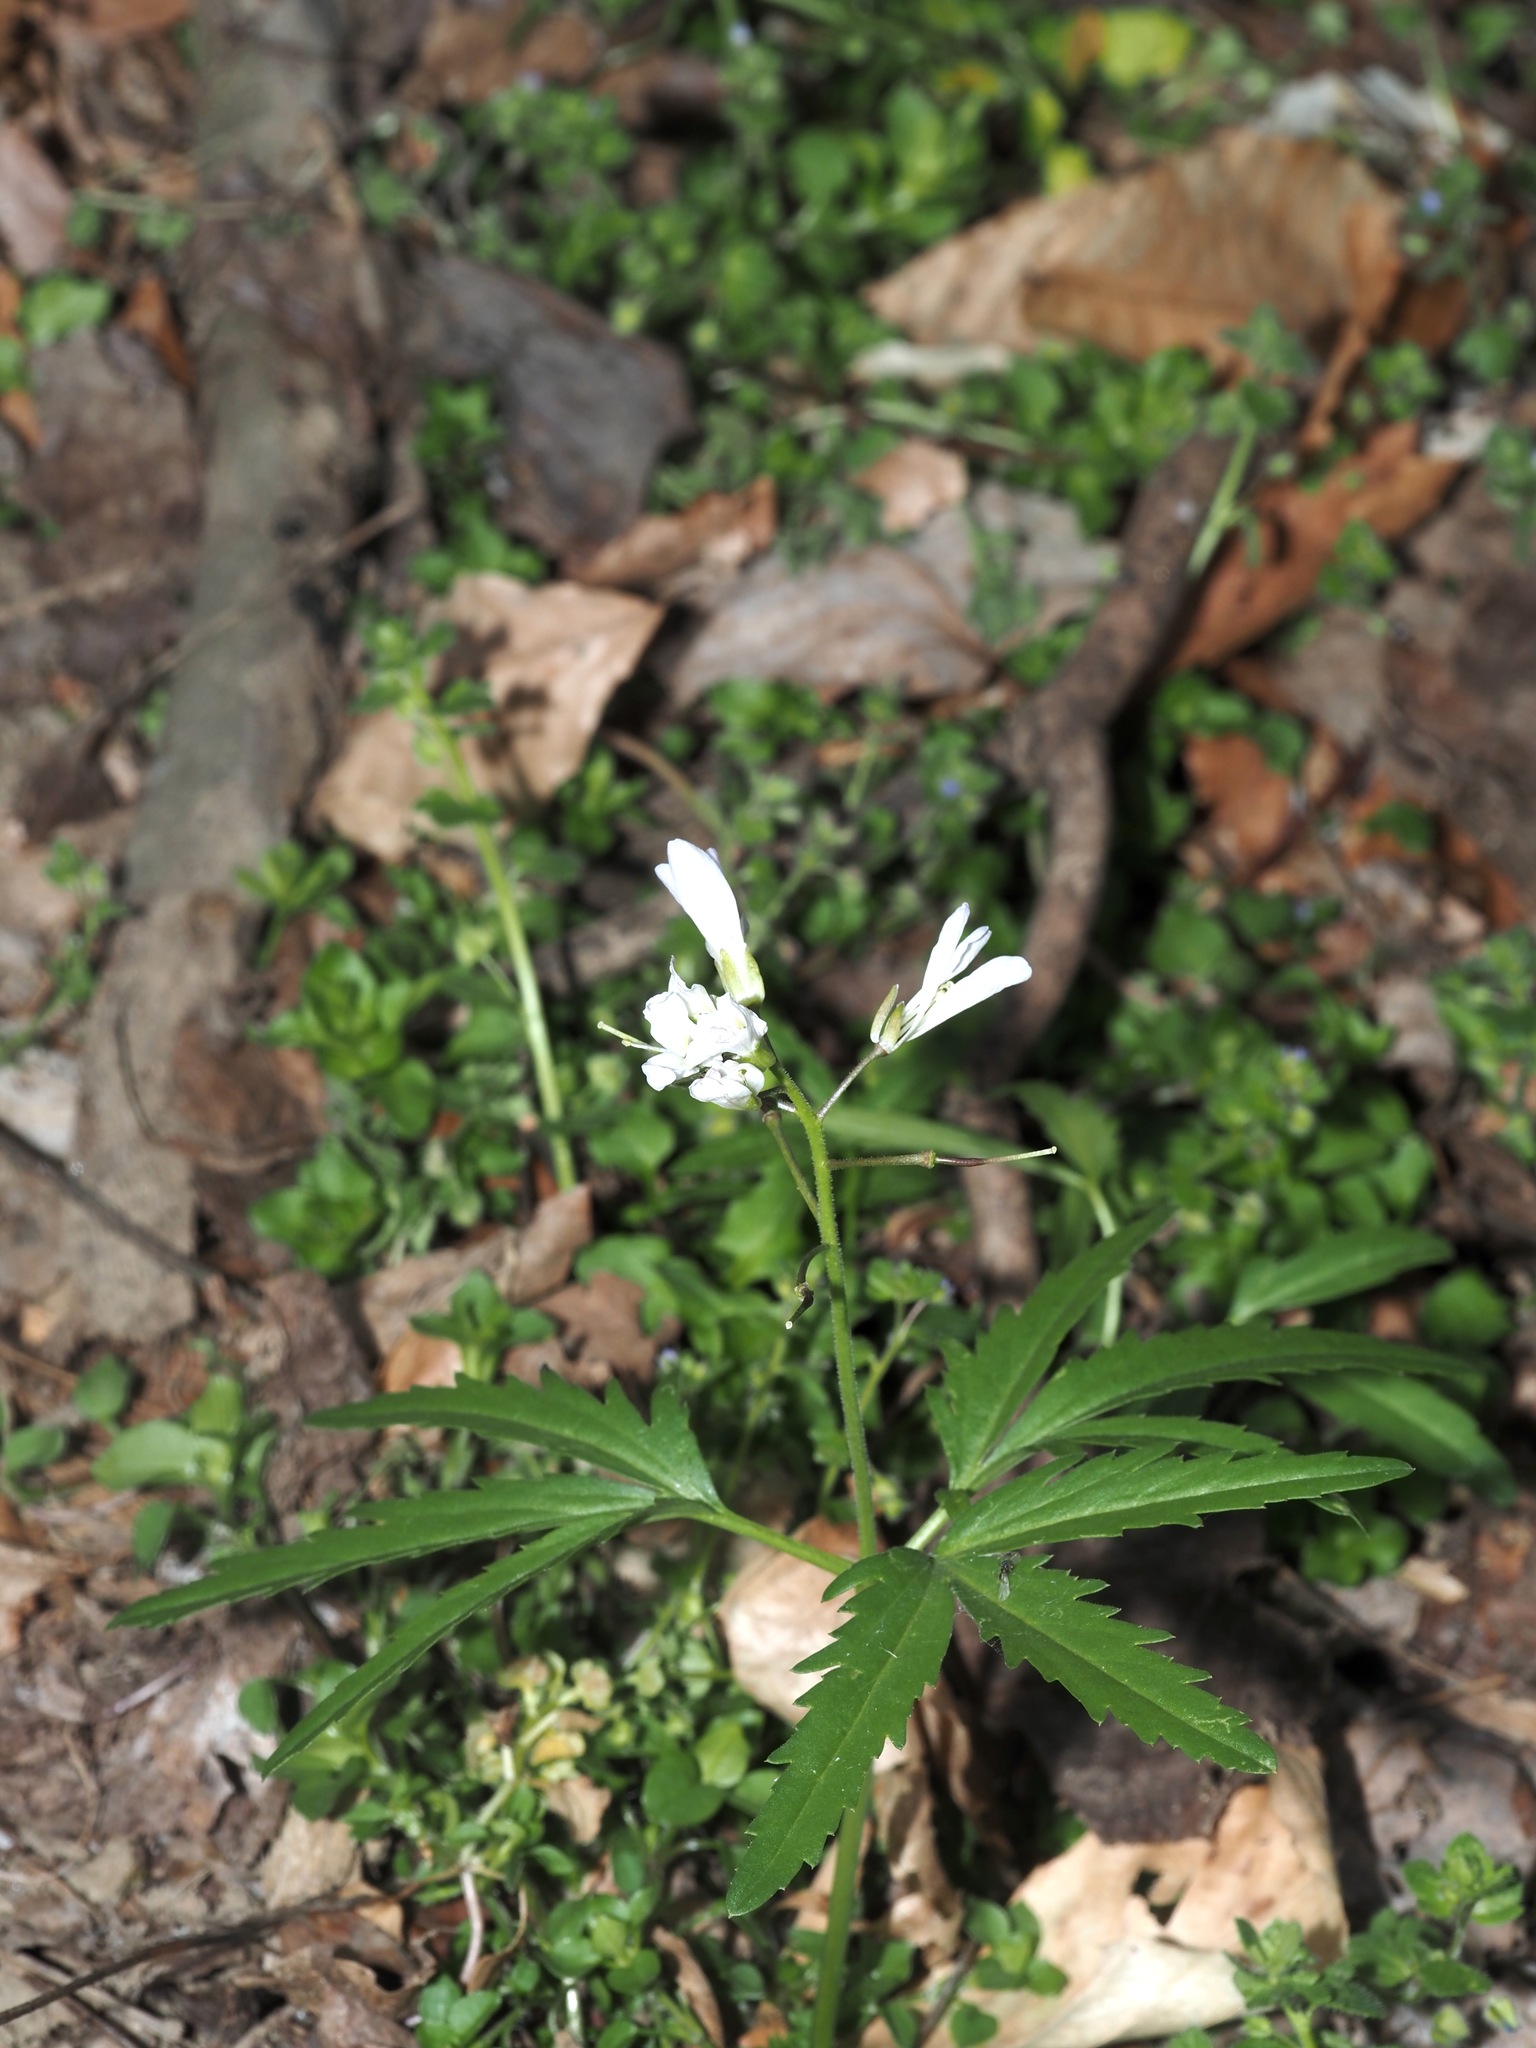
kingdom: Plantae
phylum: Tracheophyta
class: Magnoliopsida
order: Brassicales
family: Brassicaceae
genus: Cardamine
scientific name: Cardamine concatenata
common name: Cut-leaf toothcup
